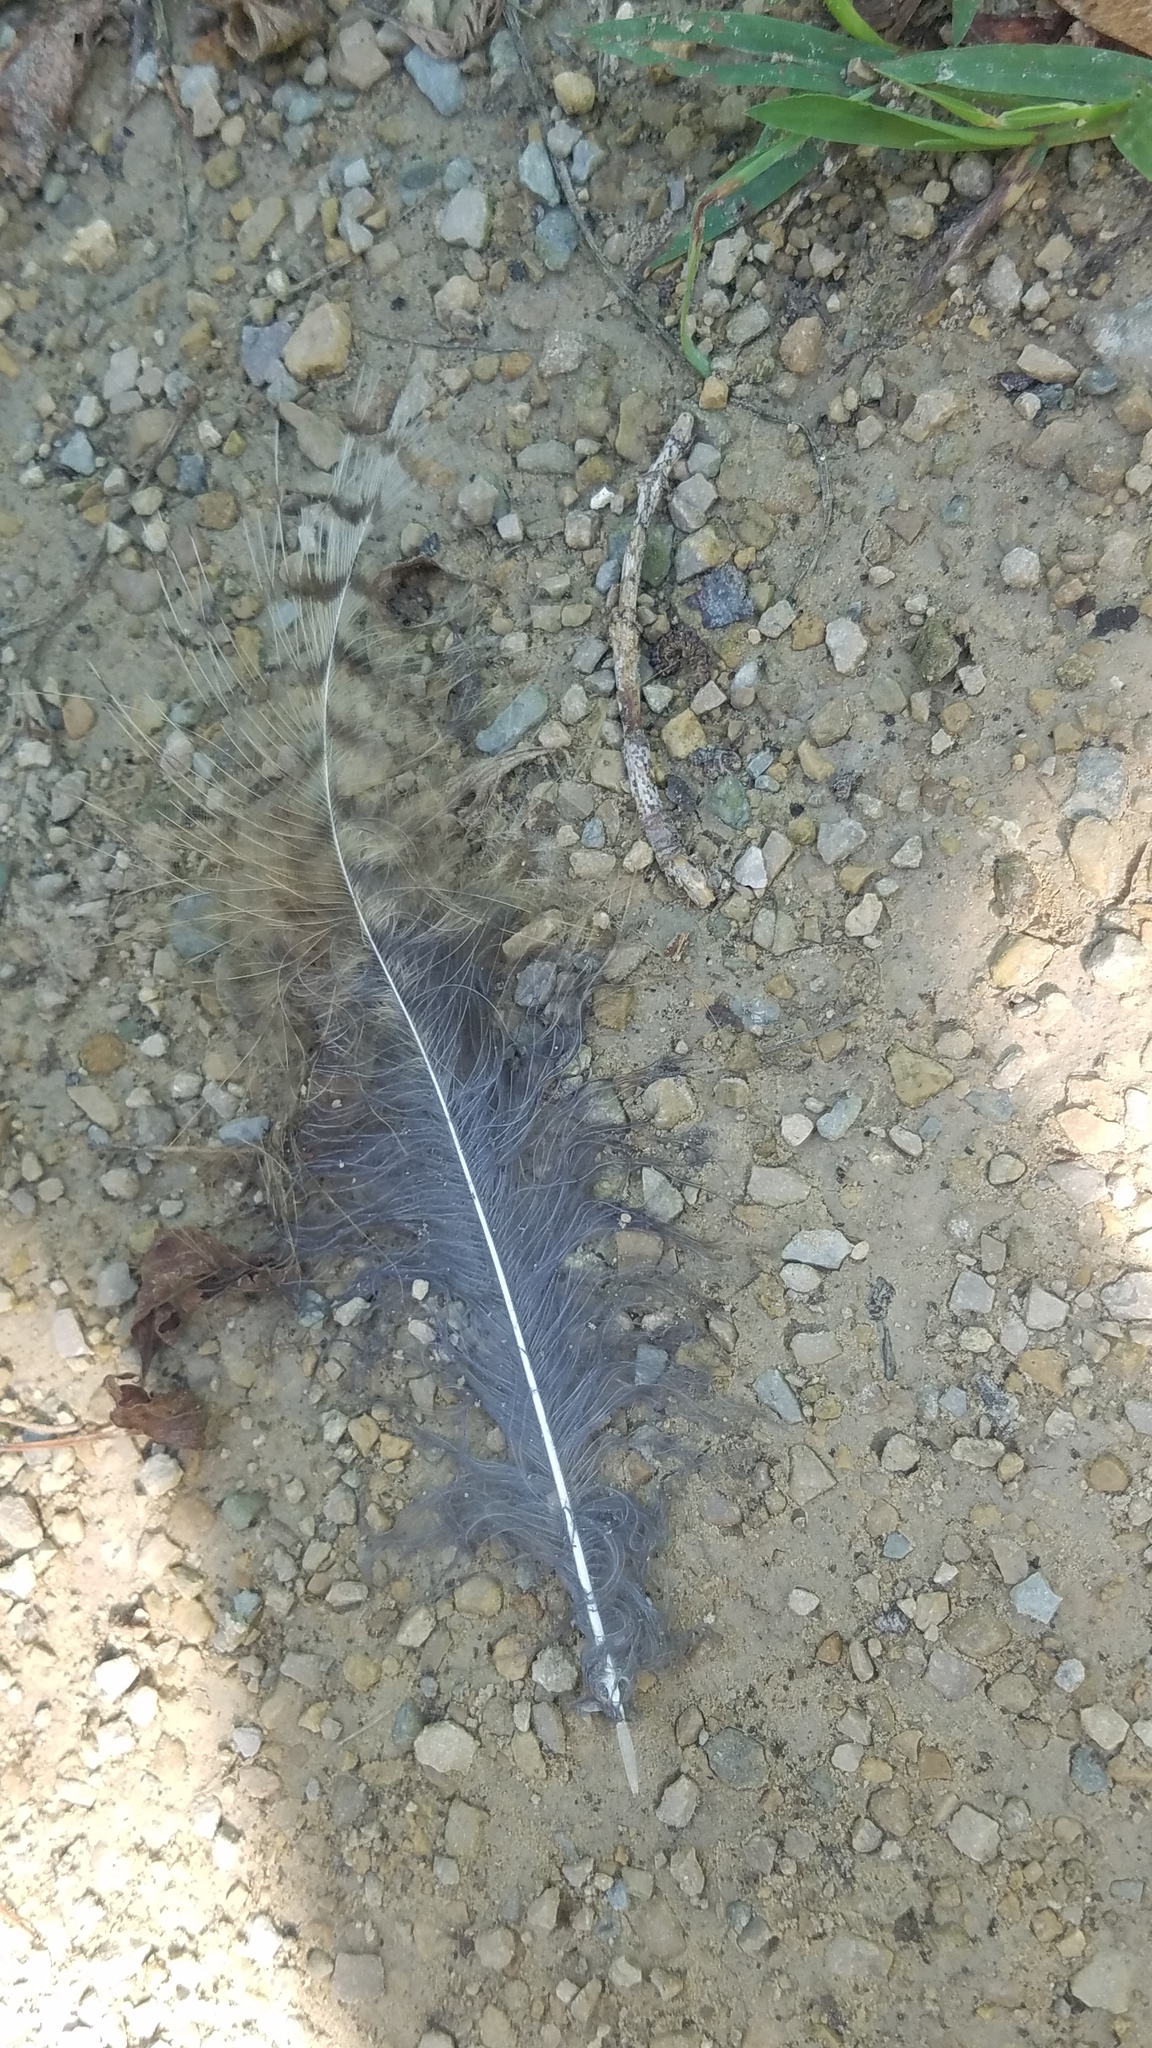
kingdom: Animalia
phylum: Chordata
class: Aves
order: Strigiformes
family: Strigidae
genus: Bubo
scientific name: Bubo virginianus
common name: Great horned owl
